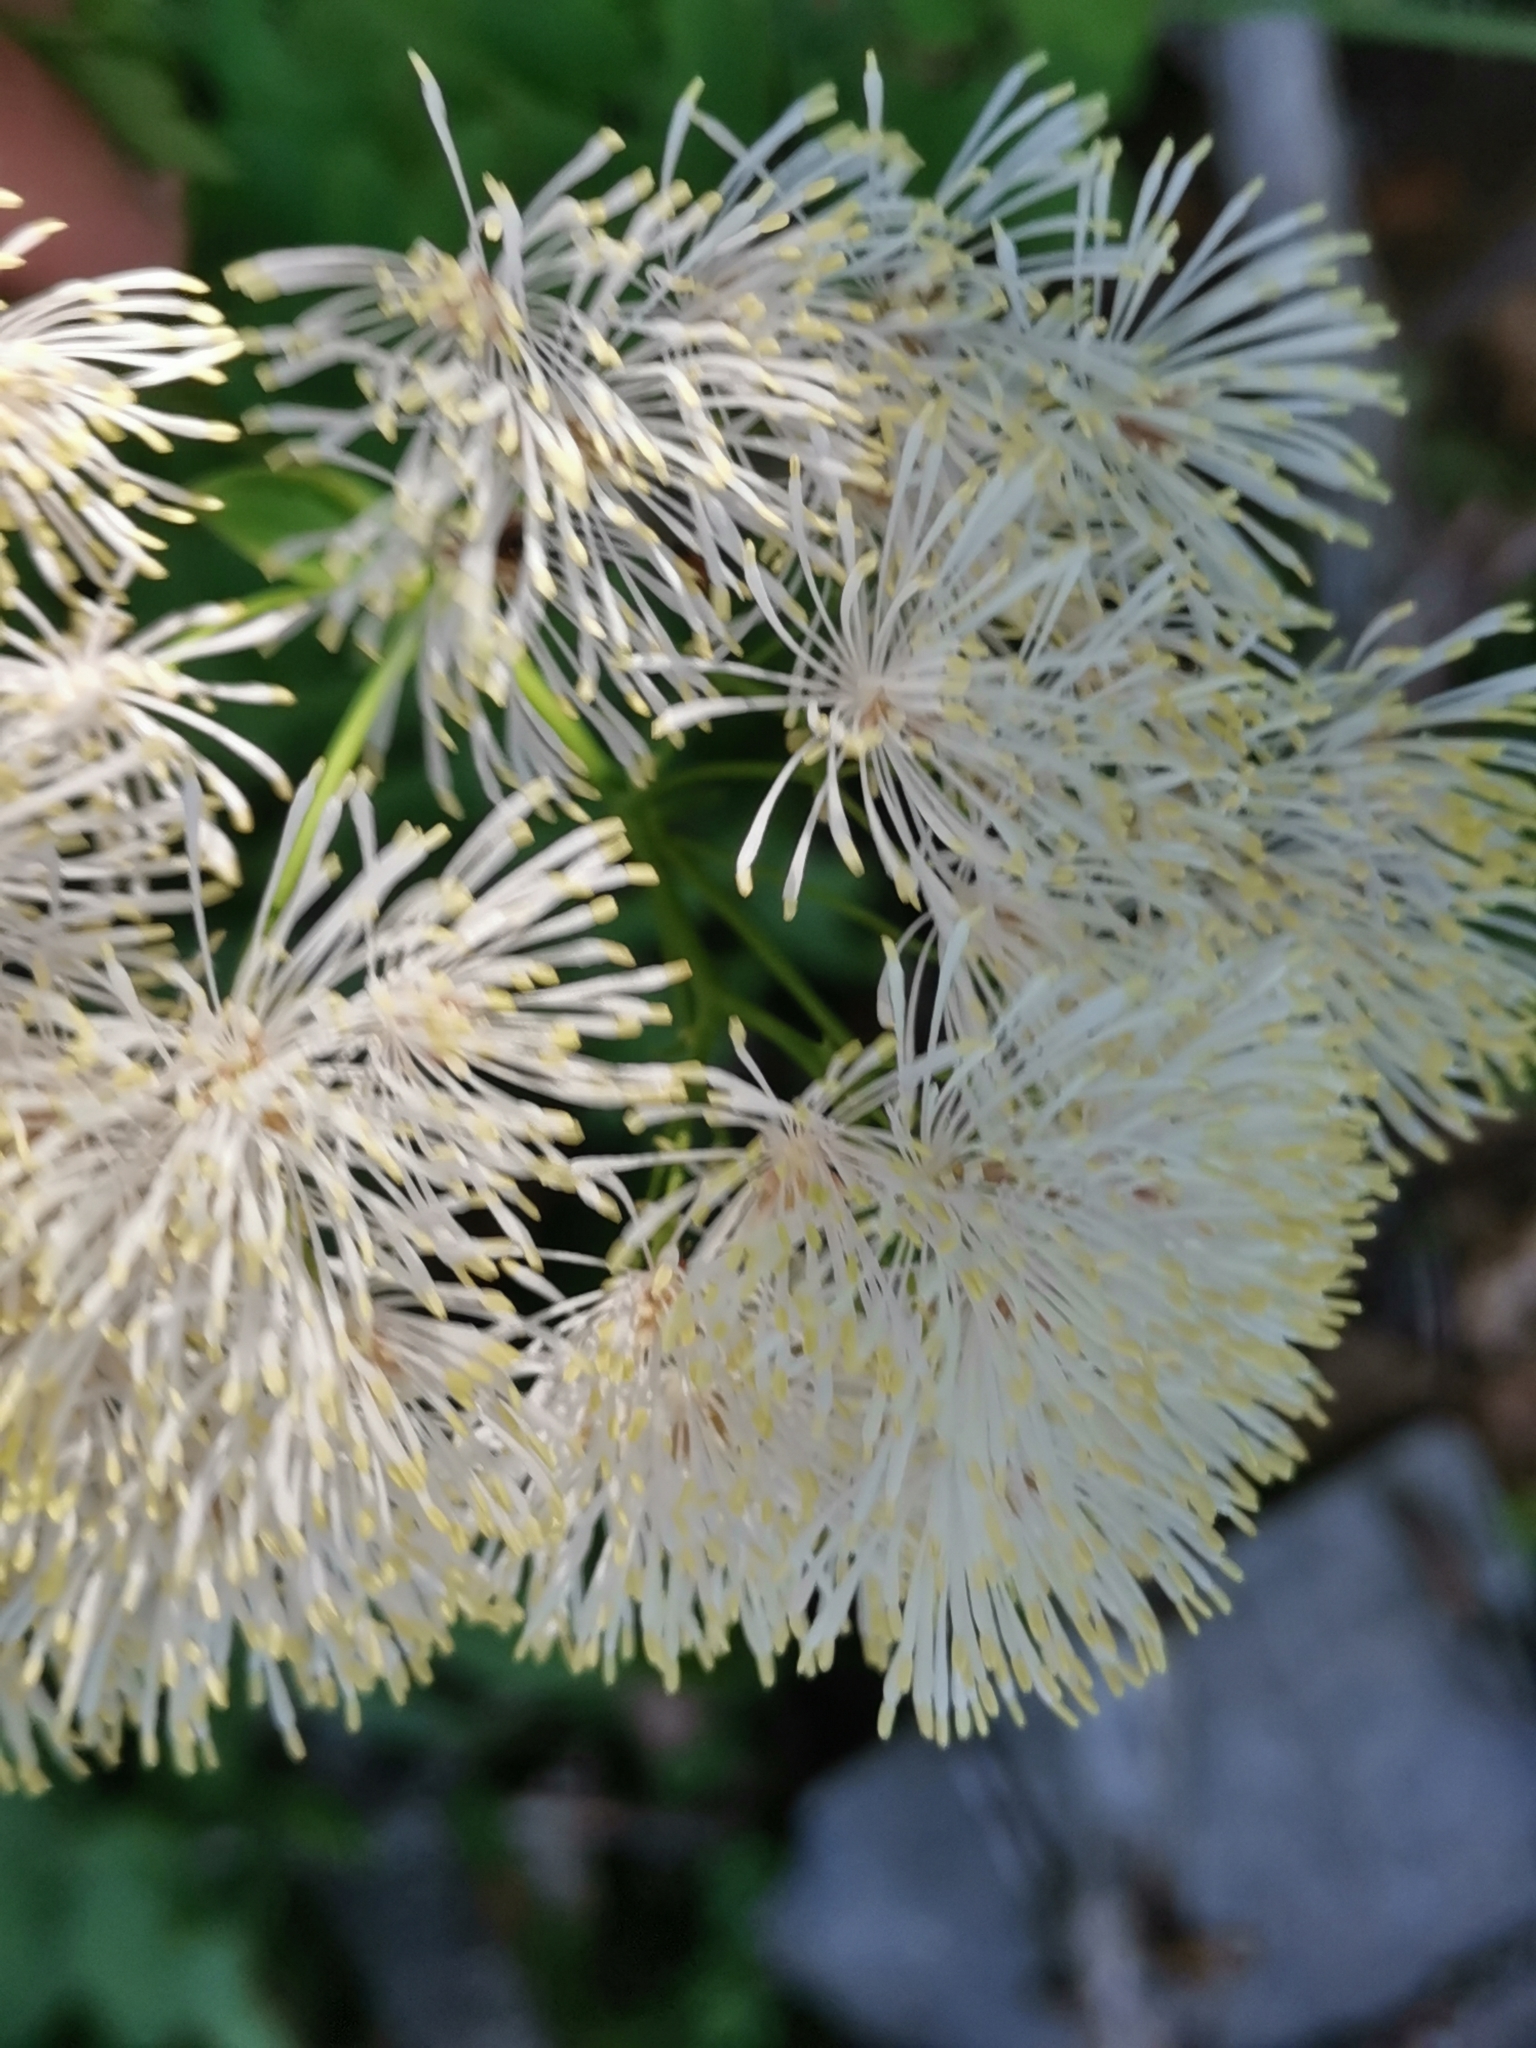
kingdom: Plantae
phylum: Tracheophyta
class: Magnoliopsida
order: Ranunculales
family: Ranunculaceae
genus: Thalictrum
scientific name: Thalictrum aquilegiifolium
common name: French meadow-rue
